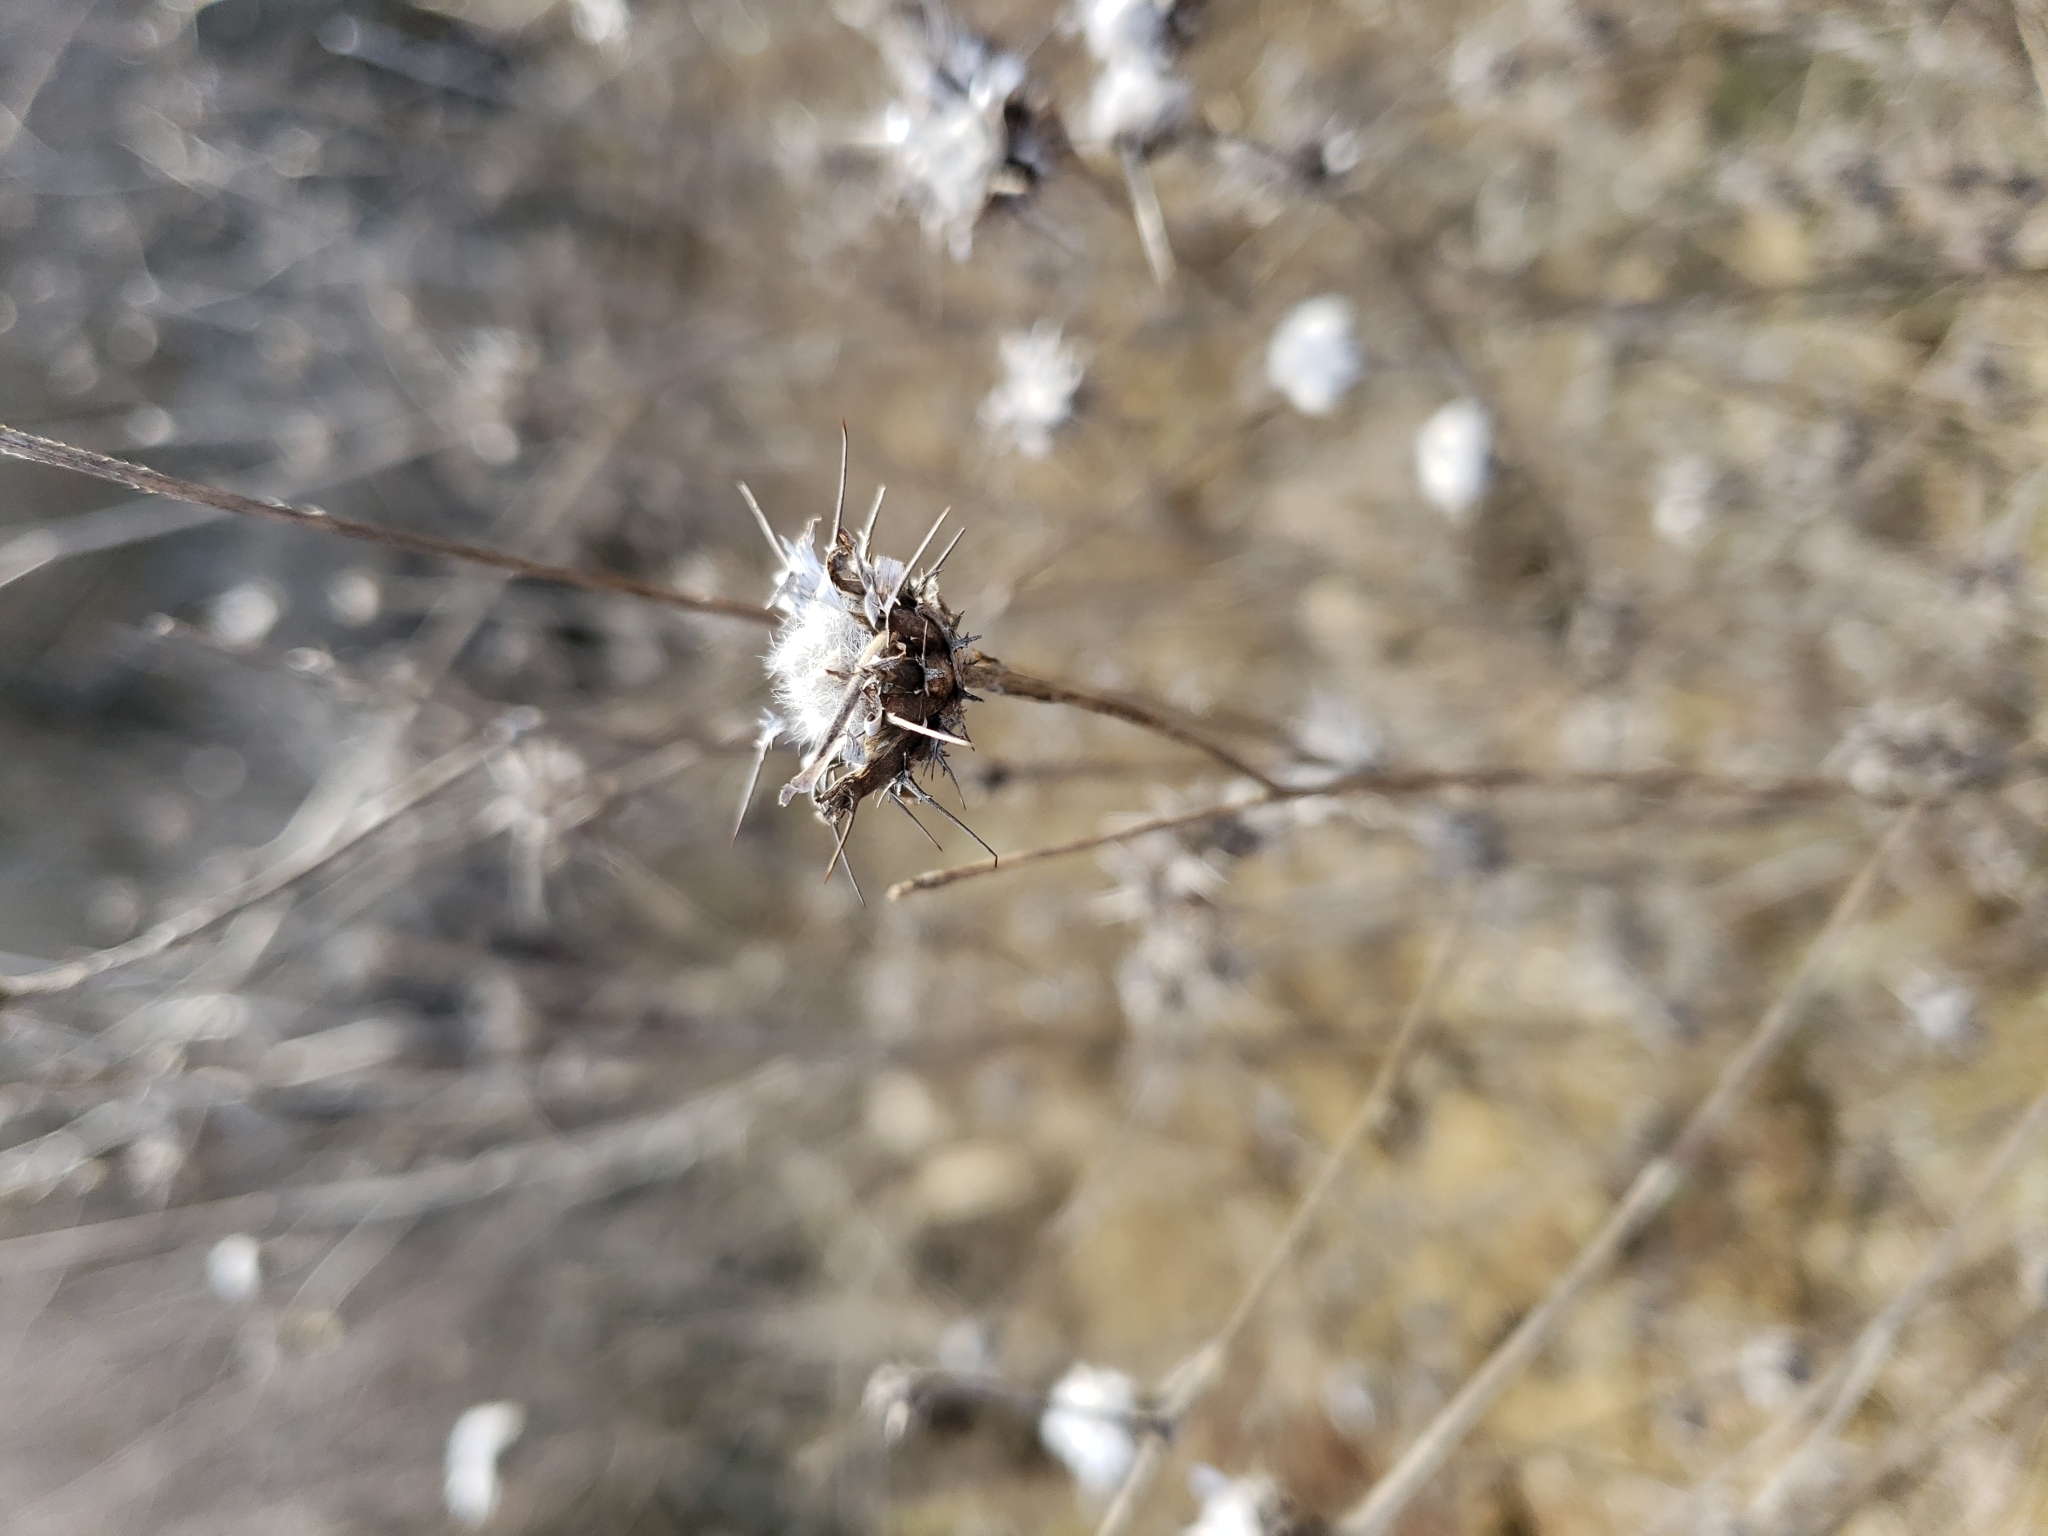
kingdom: Plantae
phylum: Tracheophyta
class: Magnoliopsida
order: Asterales
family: Asteraceae
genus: Centaurea
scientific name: Centaurea melitensis
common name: Maltese star-thistle
